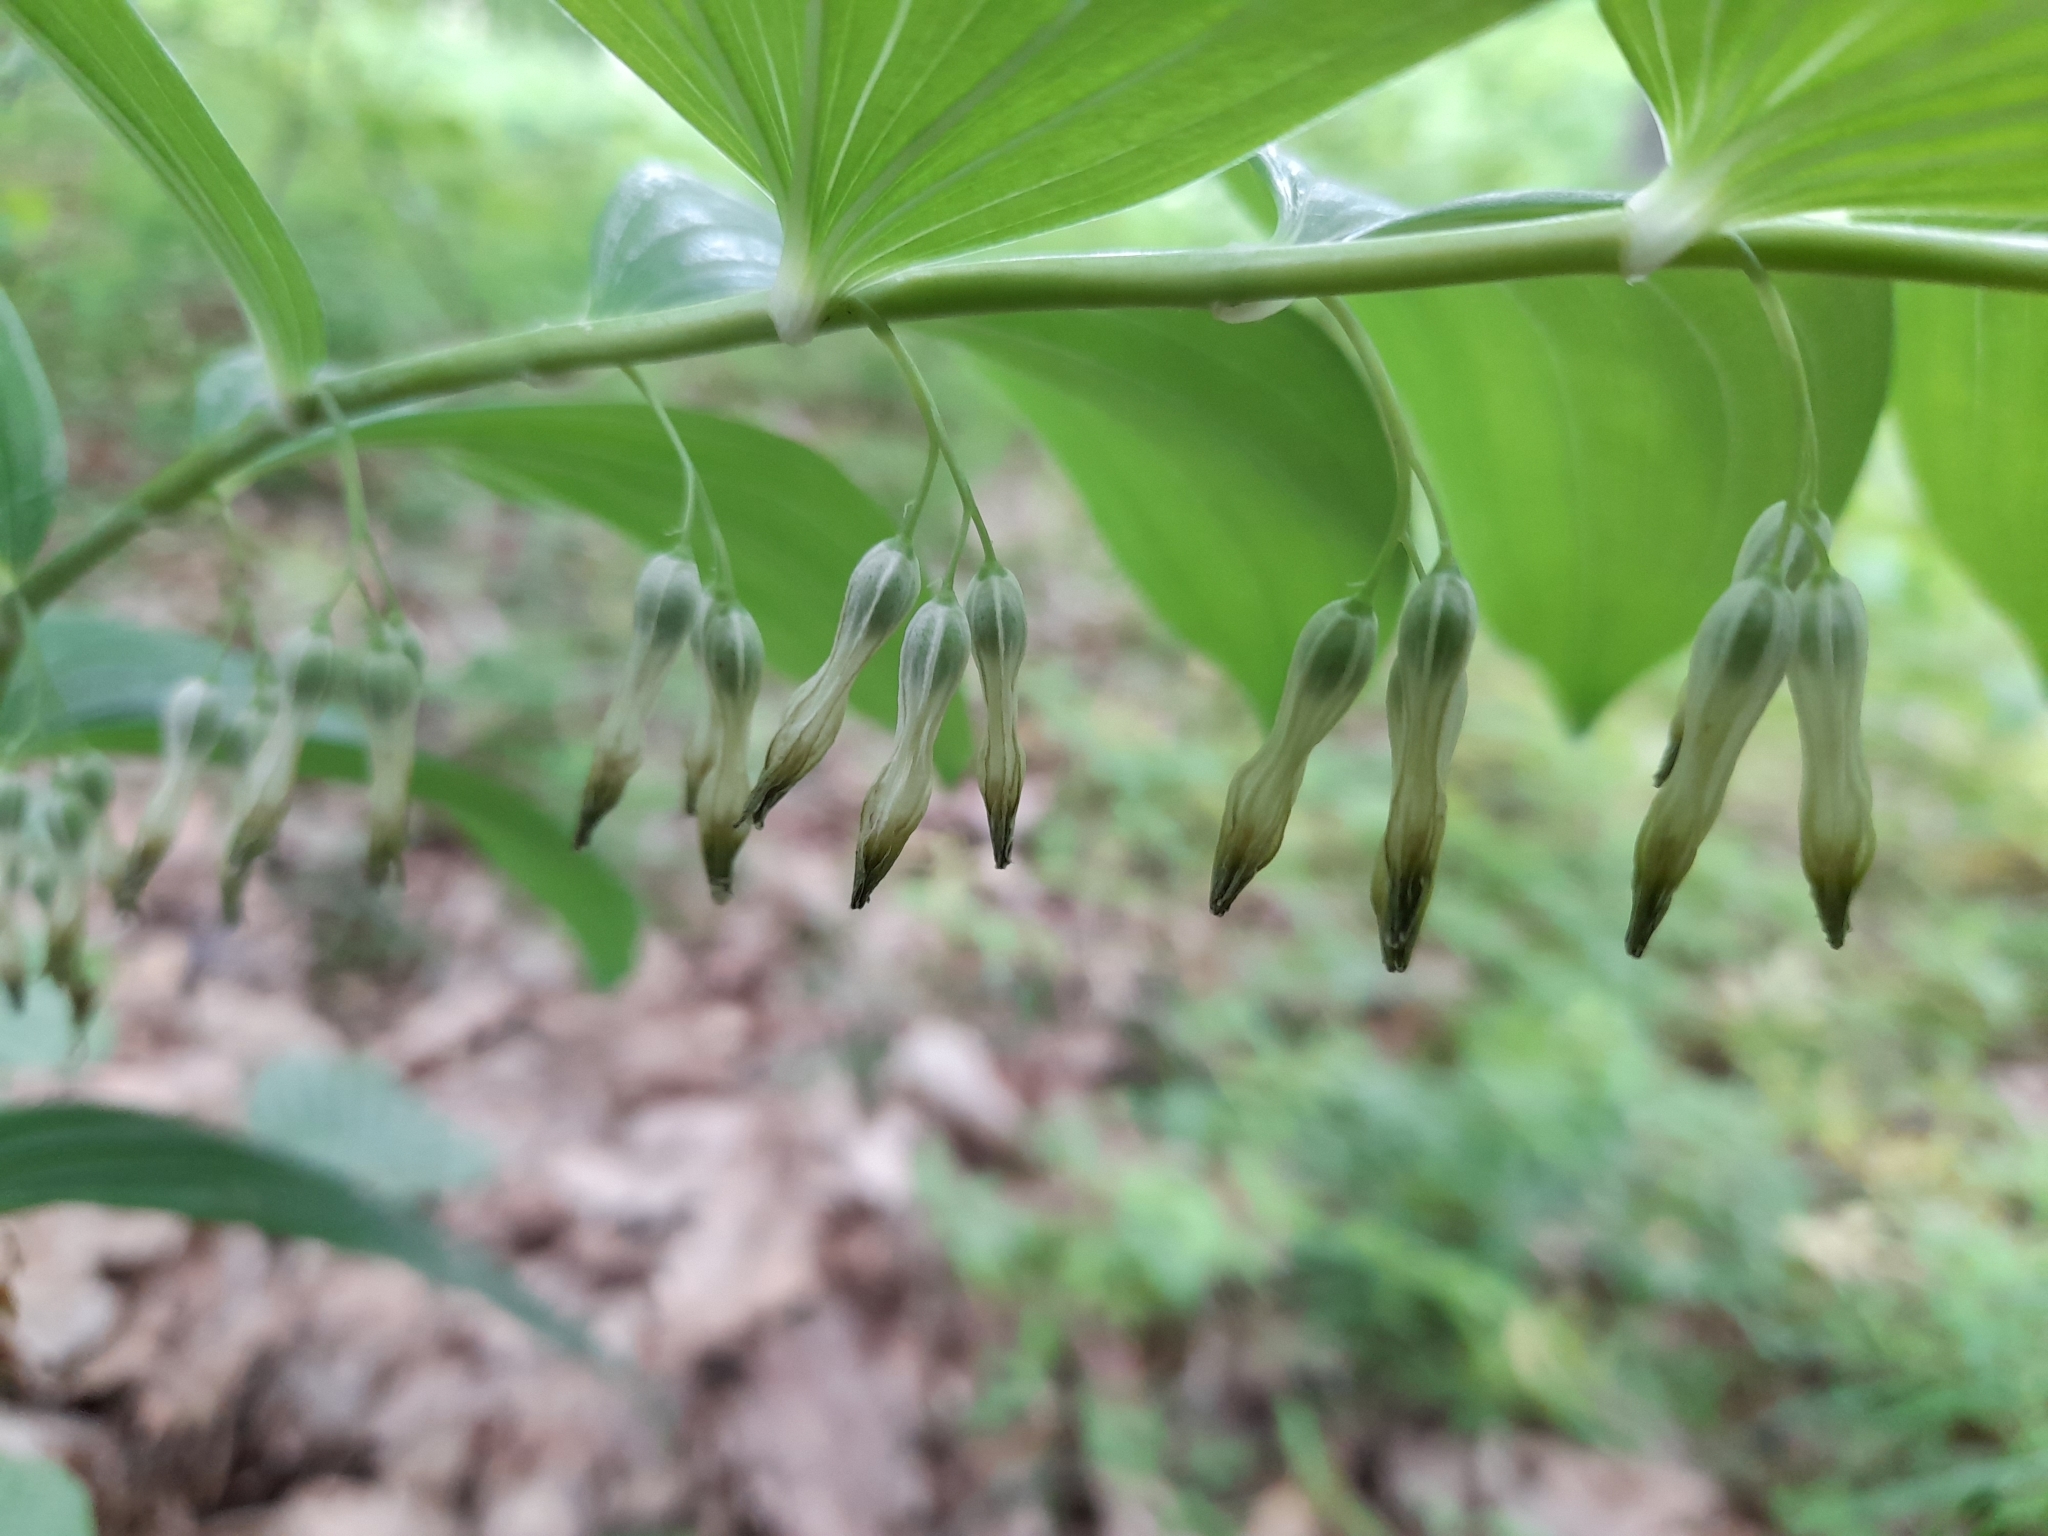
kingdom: Plantae
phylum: Tracheophyta
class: Liliopsida
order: Asparagales
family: Asparagaceae
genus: Polygonatum
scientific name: Polygonatum multiflorum
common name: Solomon's-seal
